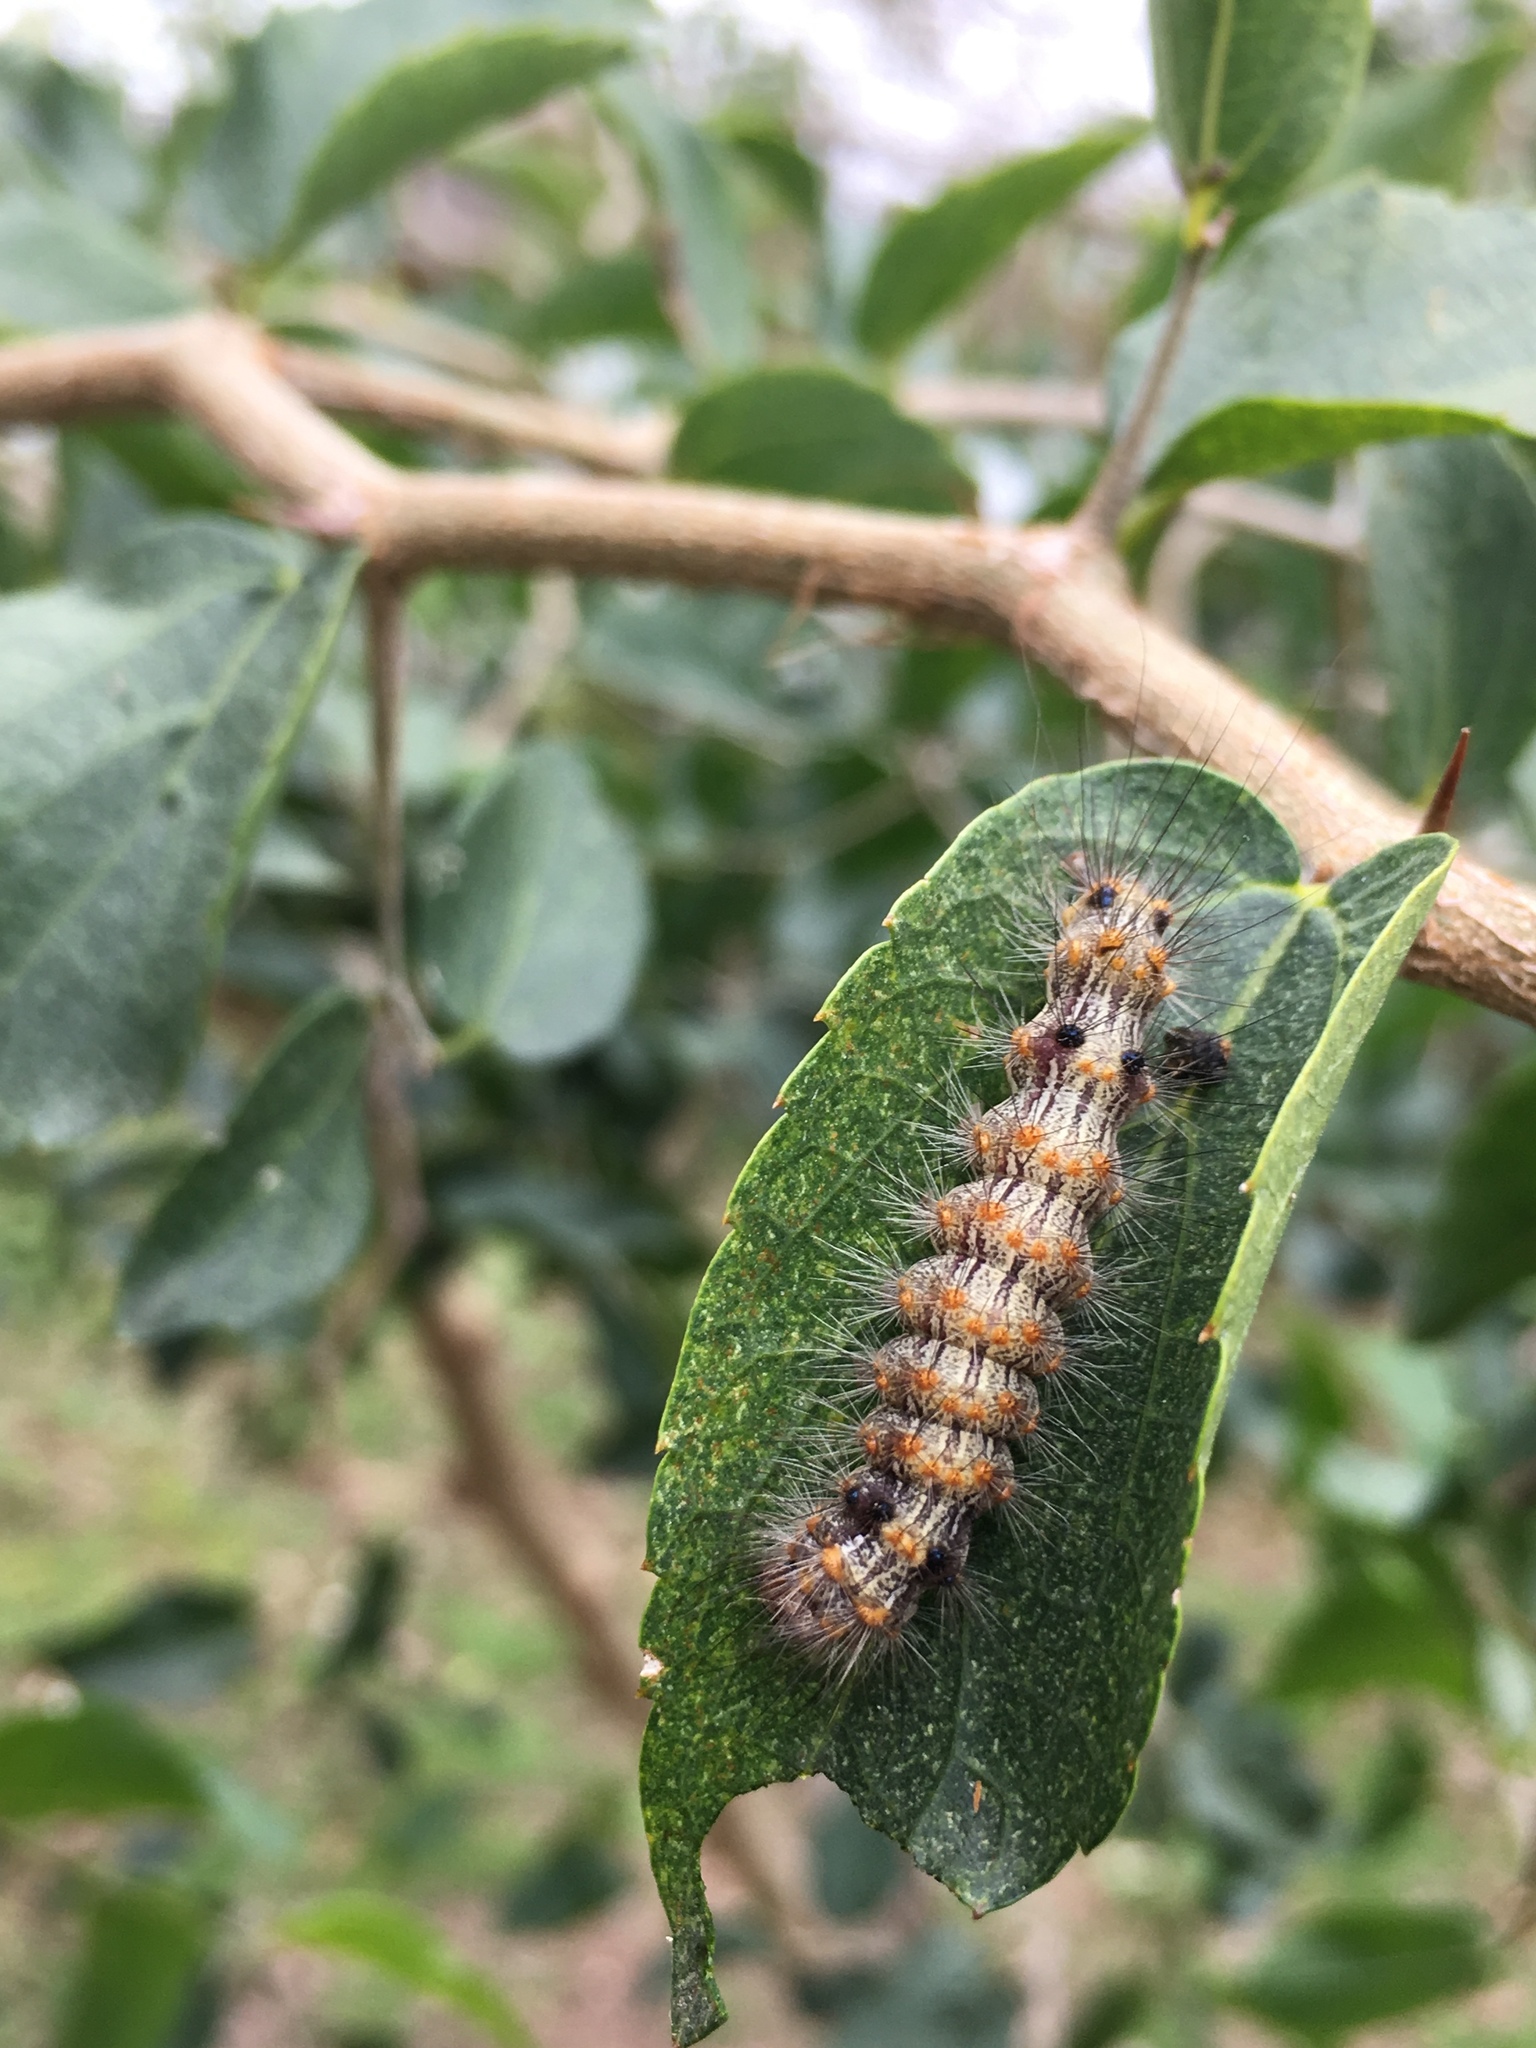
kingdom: Animalia
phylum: Arthropoda
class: Insecta
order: Lepidoptera
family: Erebidae
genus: Dysschema
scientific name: Dysschema sacrifica
